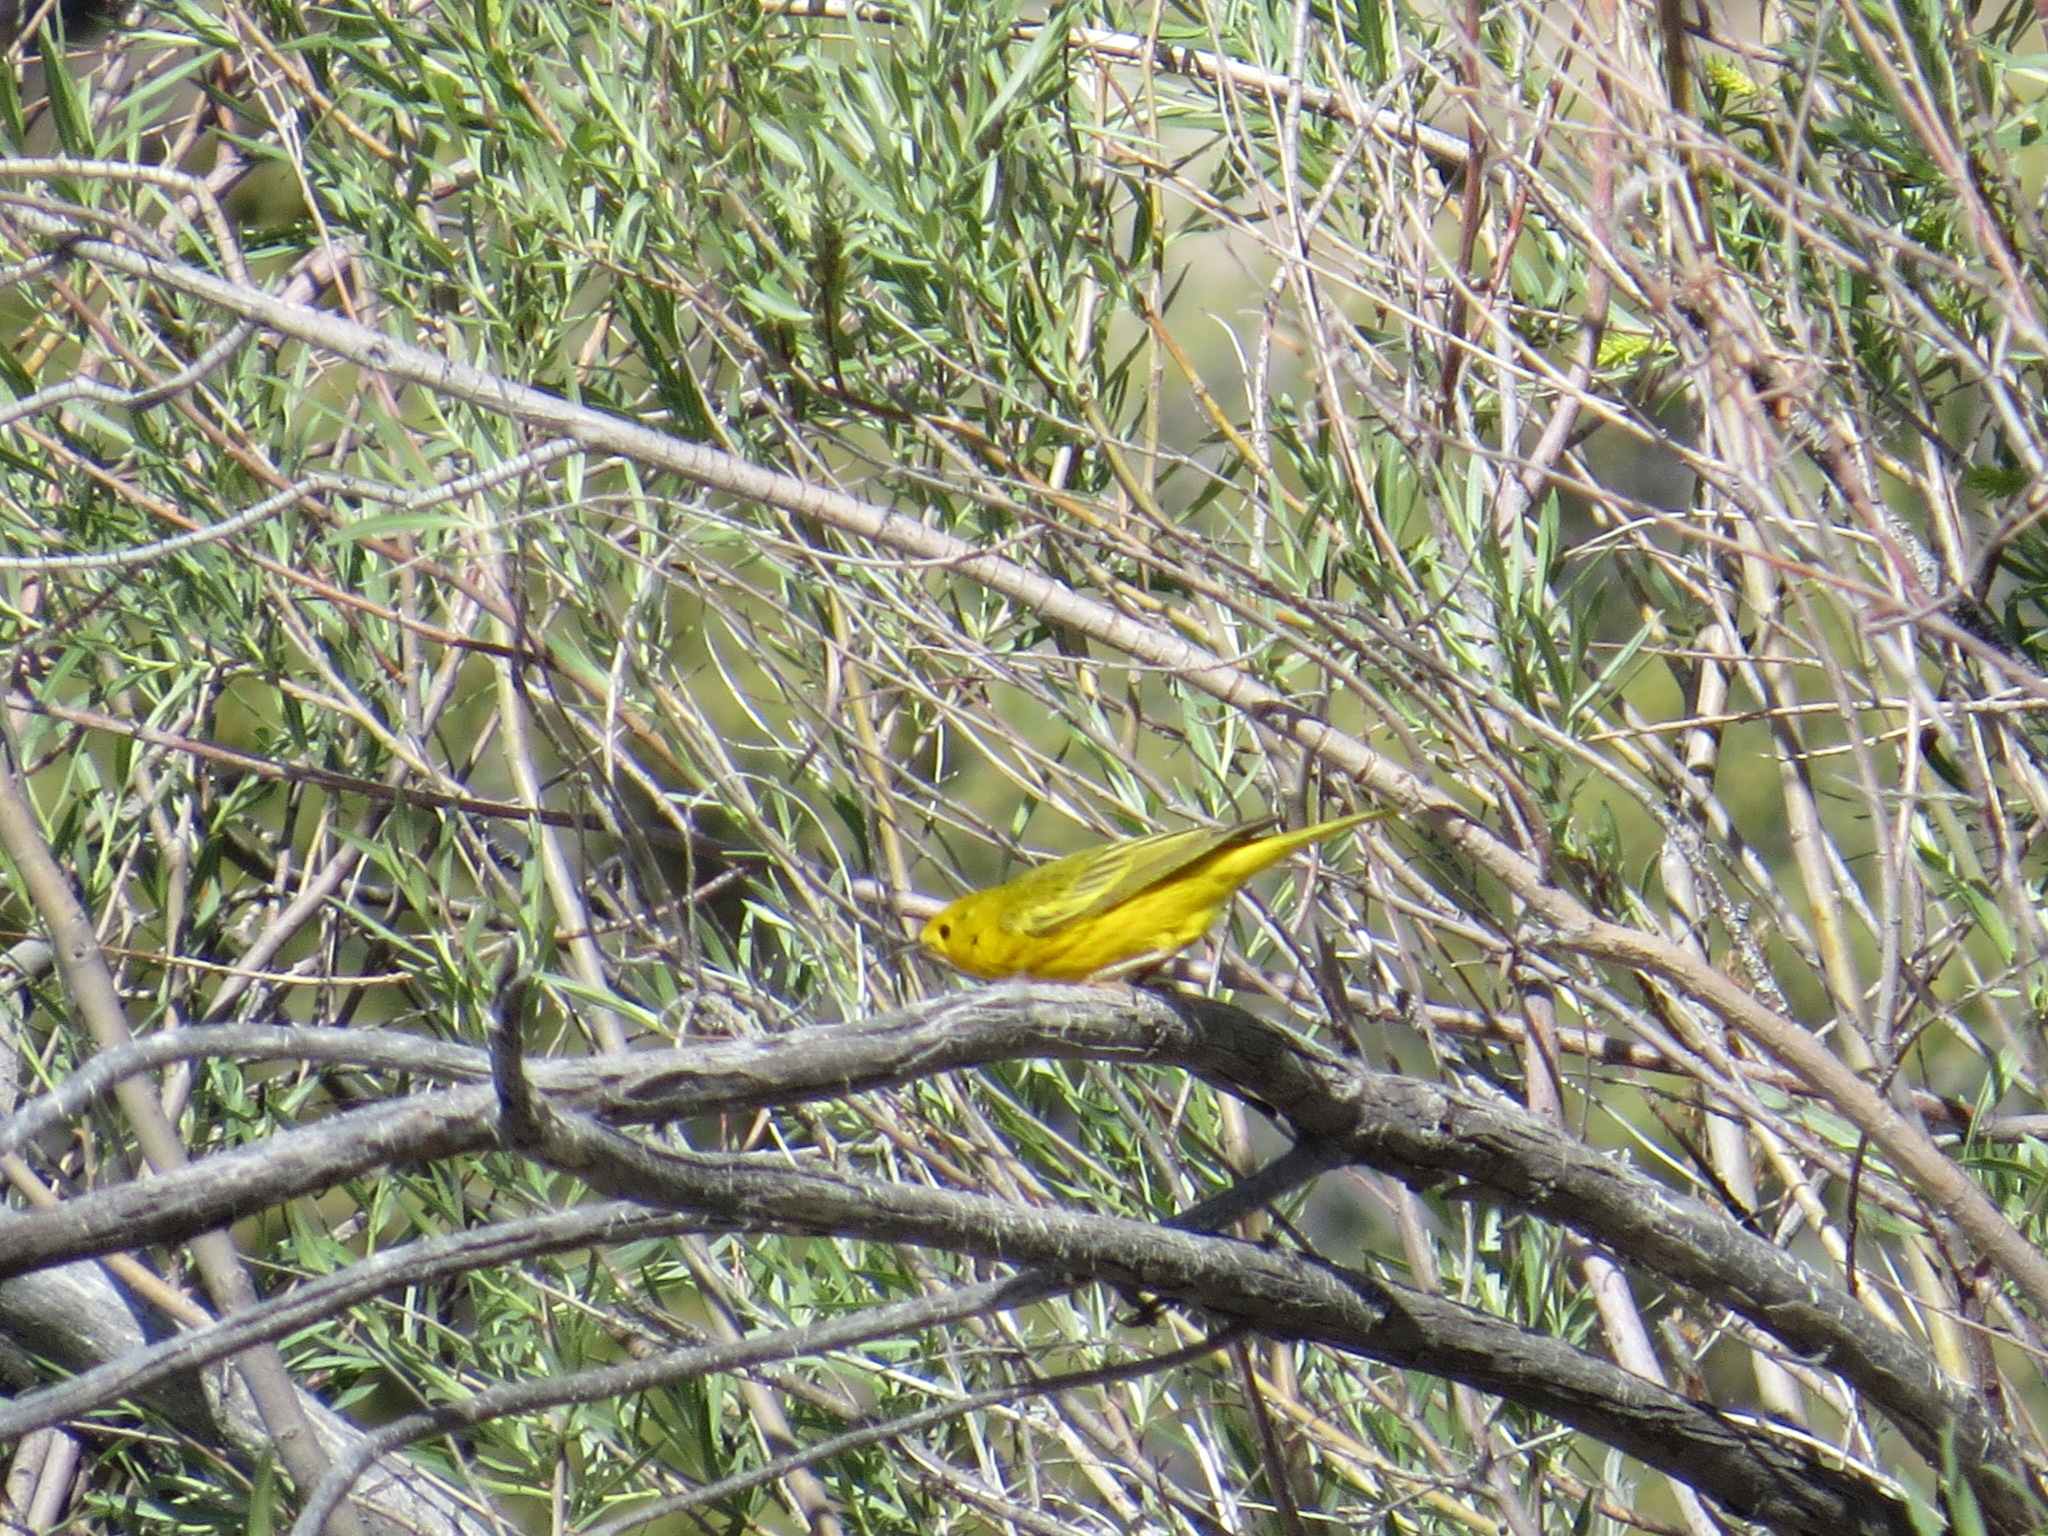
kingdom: Animalia
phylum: Chordata
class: Aves
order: Passeriformes
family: Parulidae
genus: Setophaga
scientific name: Setophaga petechia
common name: Yellow warbler
